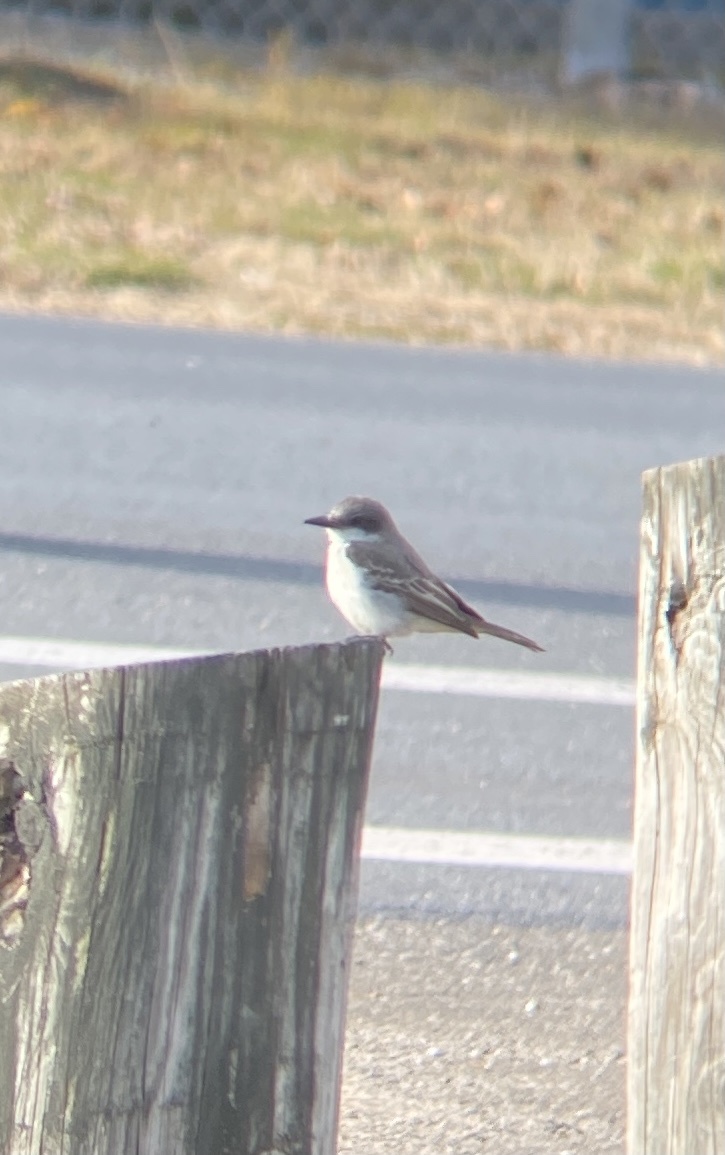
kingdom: Animalia
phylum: Chordata
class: Aves
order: Passeriformes
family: Tyrannidae
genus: Tyrannus
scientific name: Tyrannus dominicensis
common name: Gray kingbird
